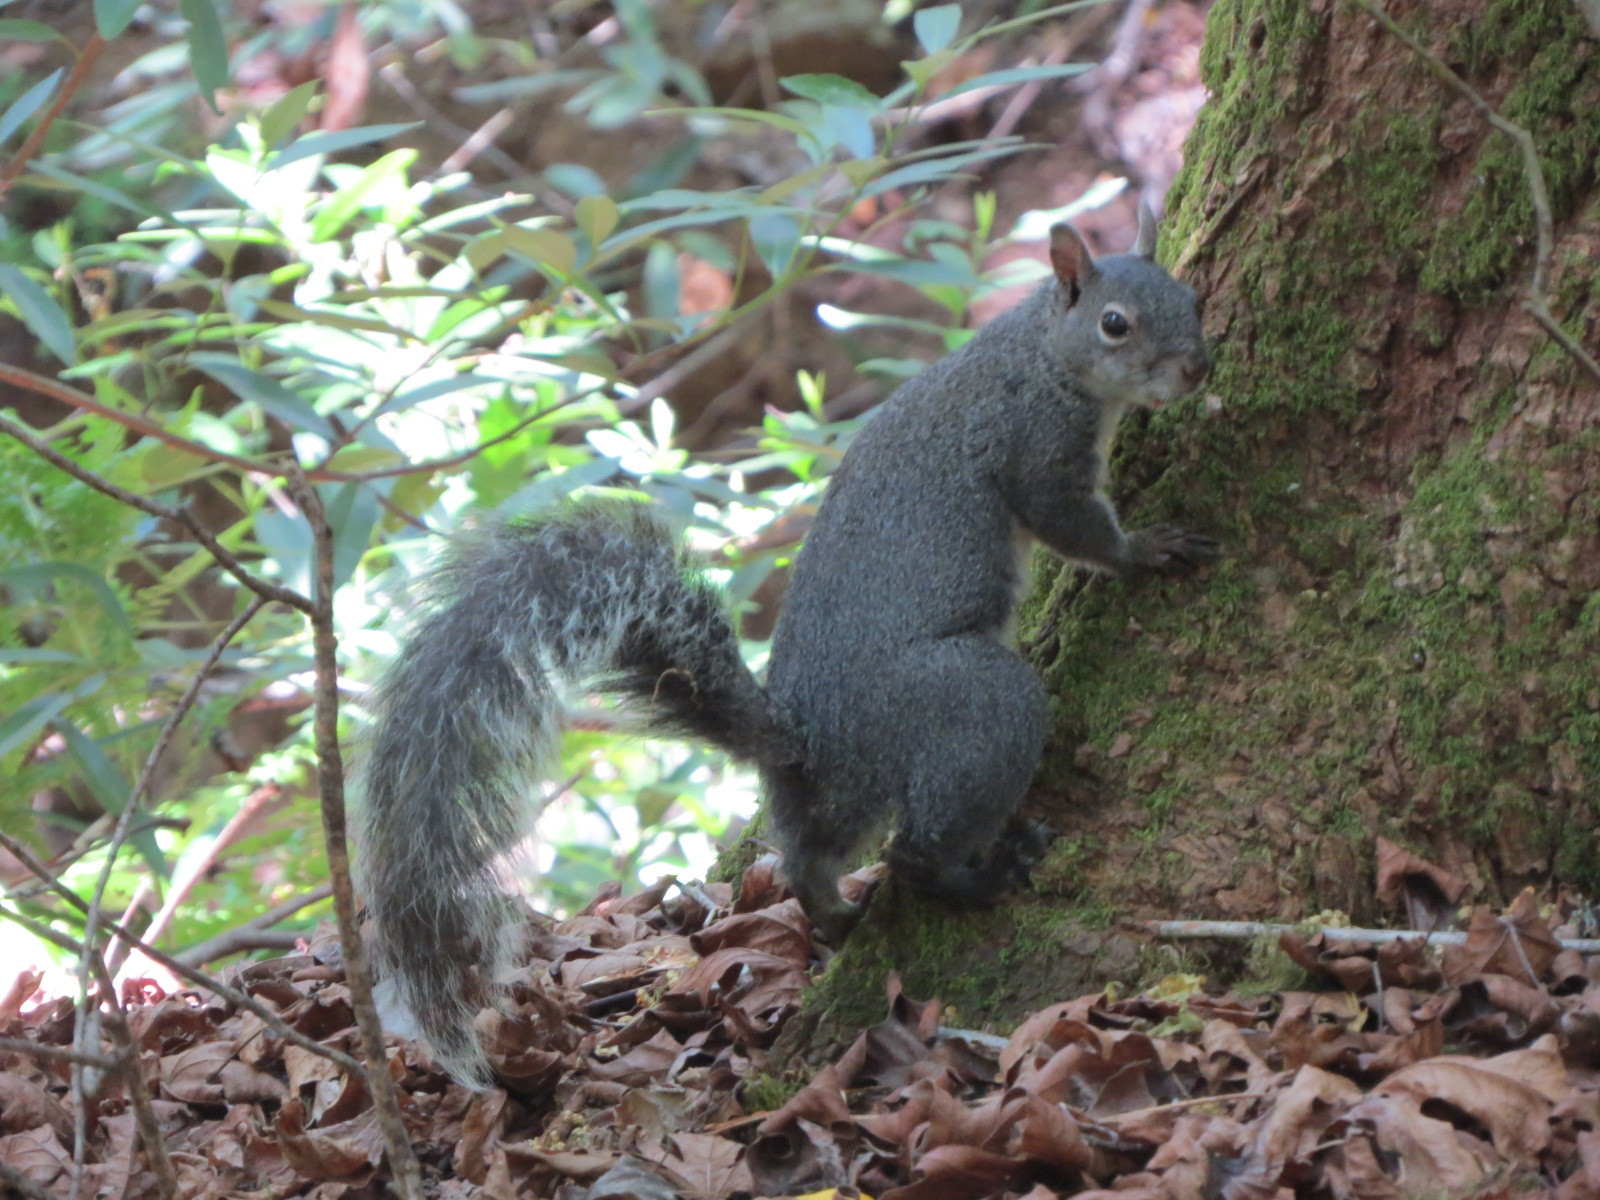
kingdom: Animalia
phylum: Chordata
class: Mammalia
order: Rodentia
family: Sciuridae
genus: Sciurus
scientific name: Sciurus griseus
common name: Western gray squirrel
